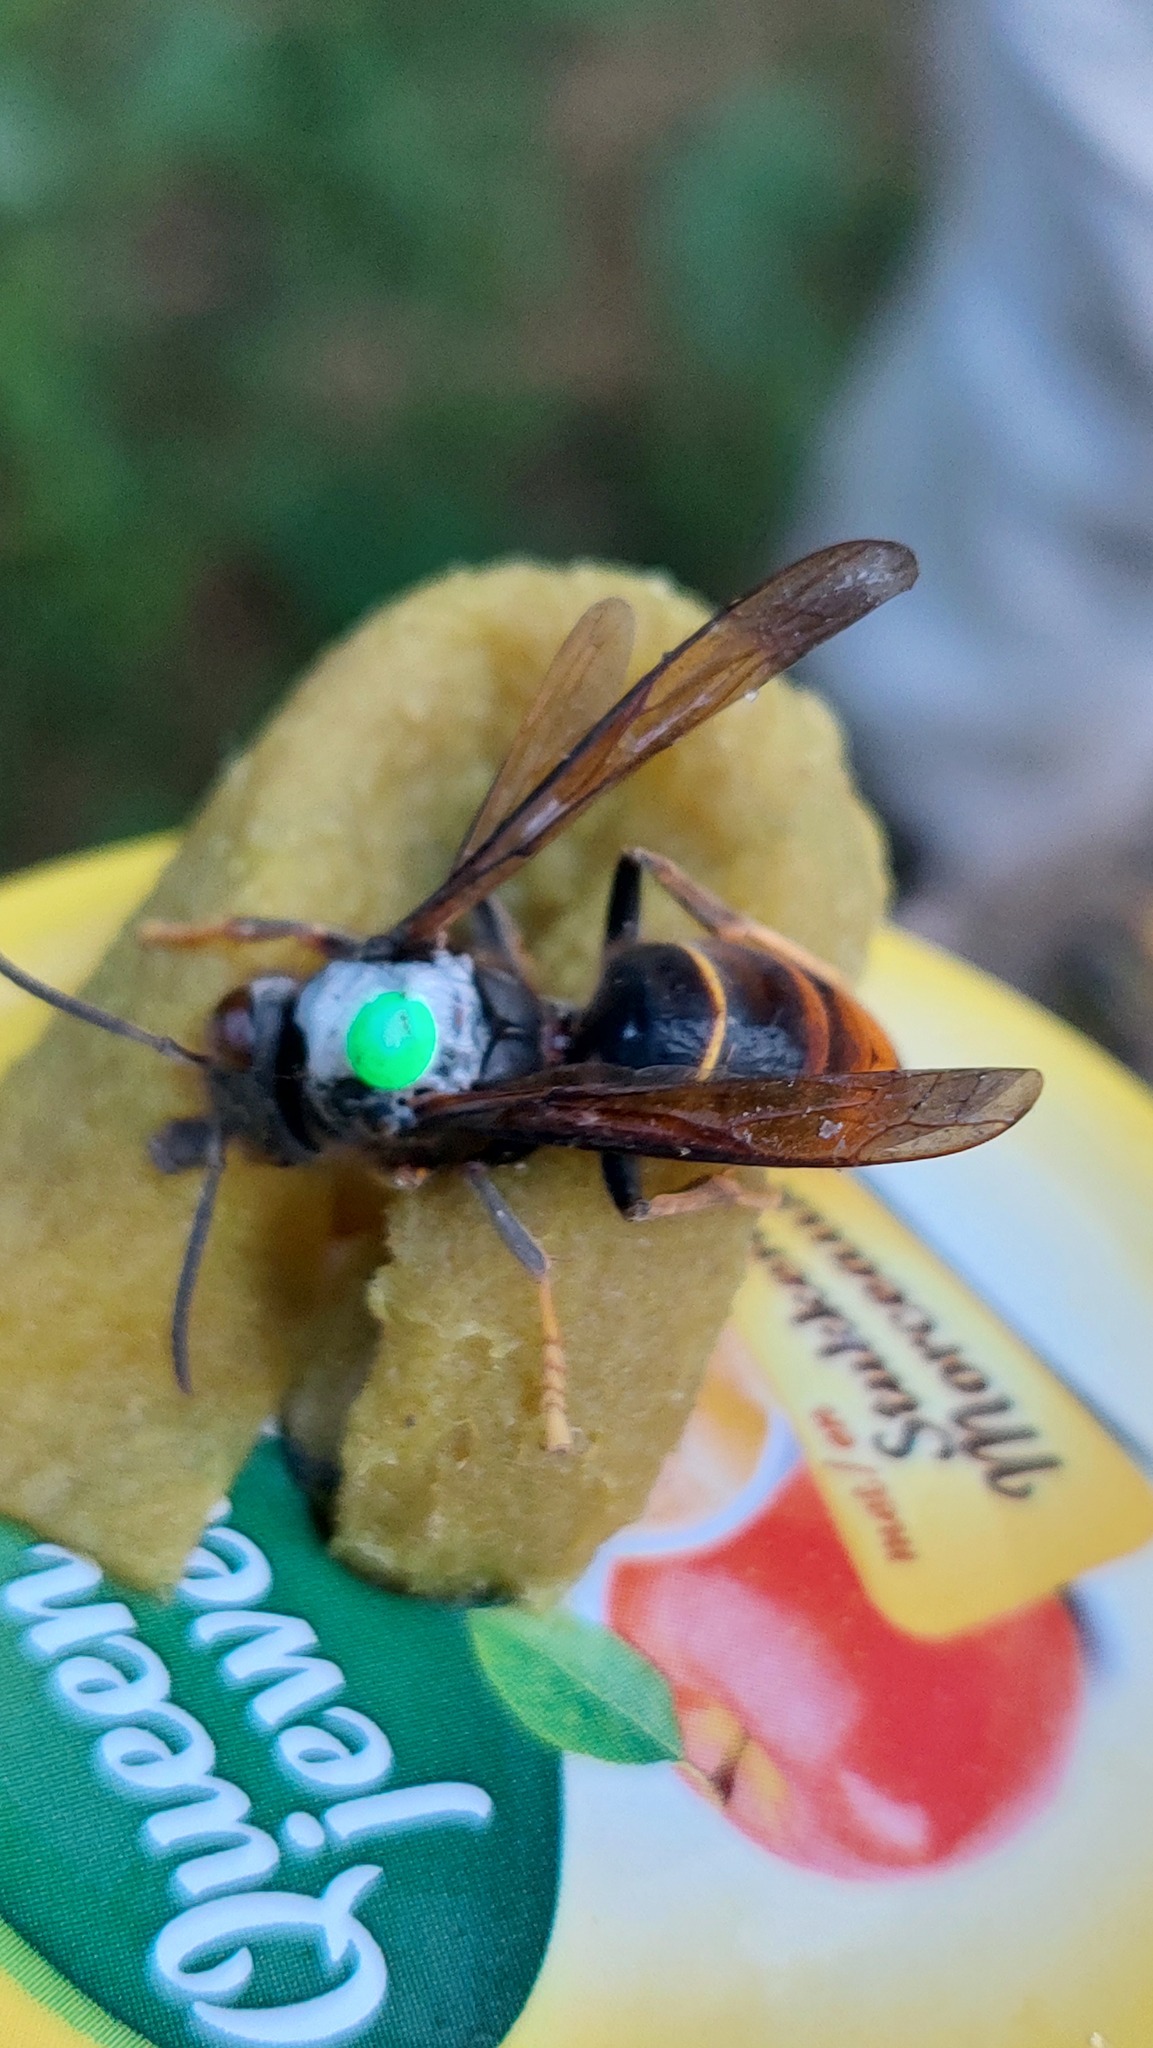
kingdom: Animalia
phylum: Arthropoda
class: Insecta
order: Hymenoptera
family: Vespidae
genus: Vespa
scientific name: Vespa velutina
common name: Asian hornet
